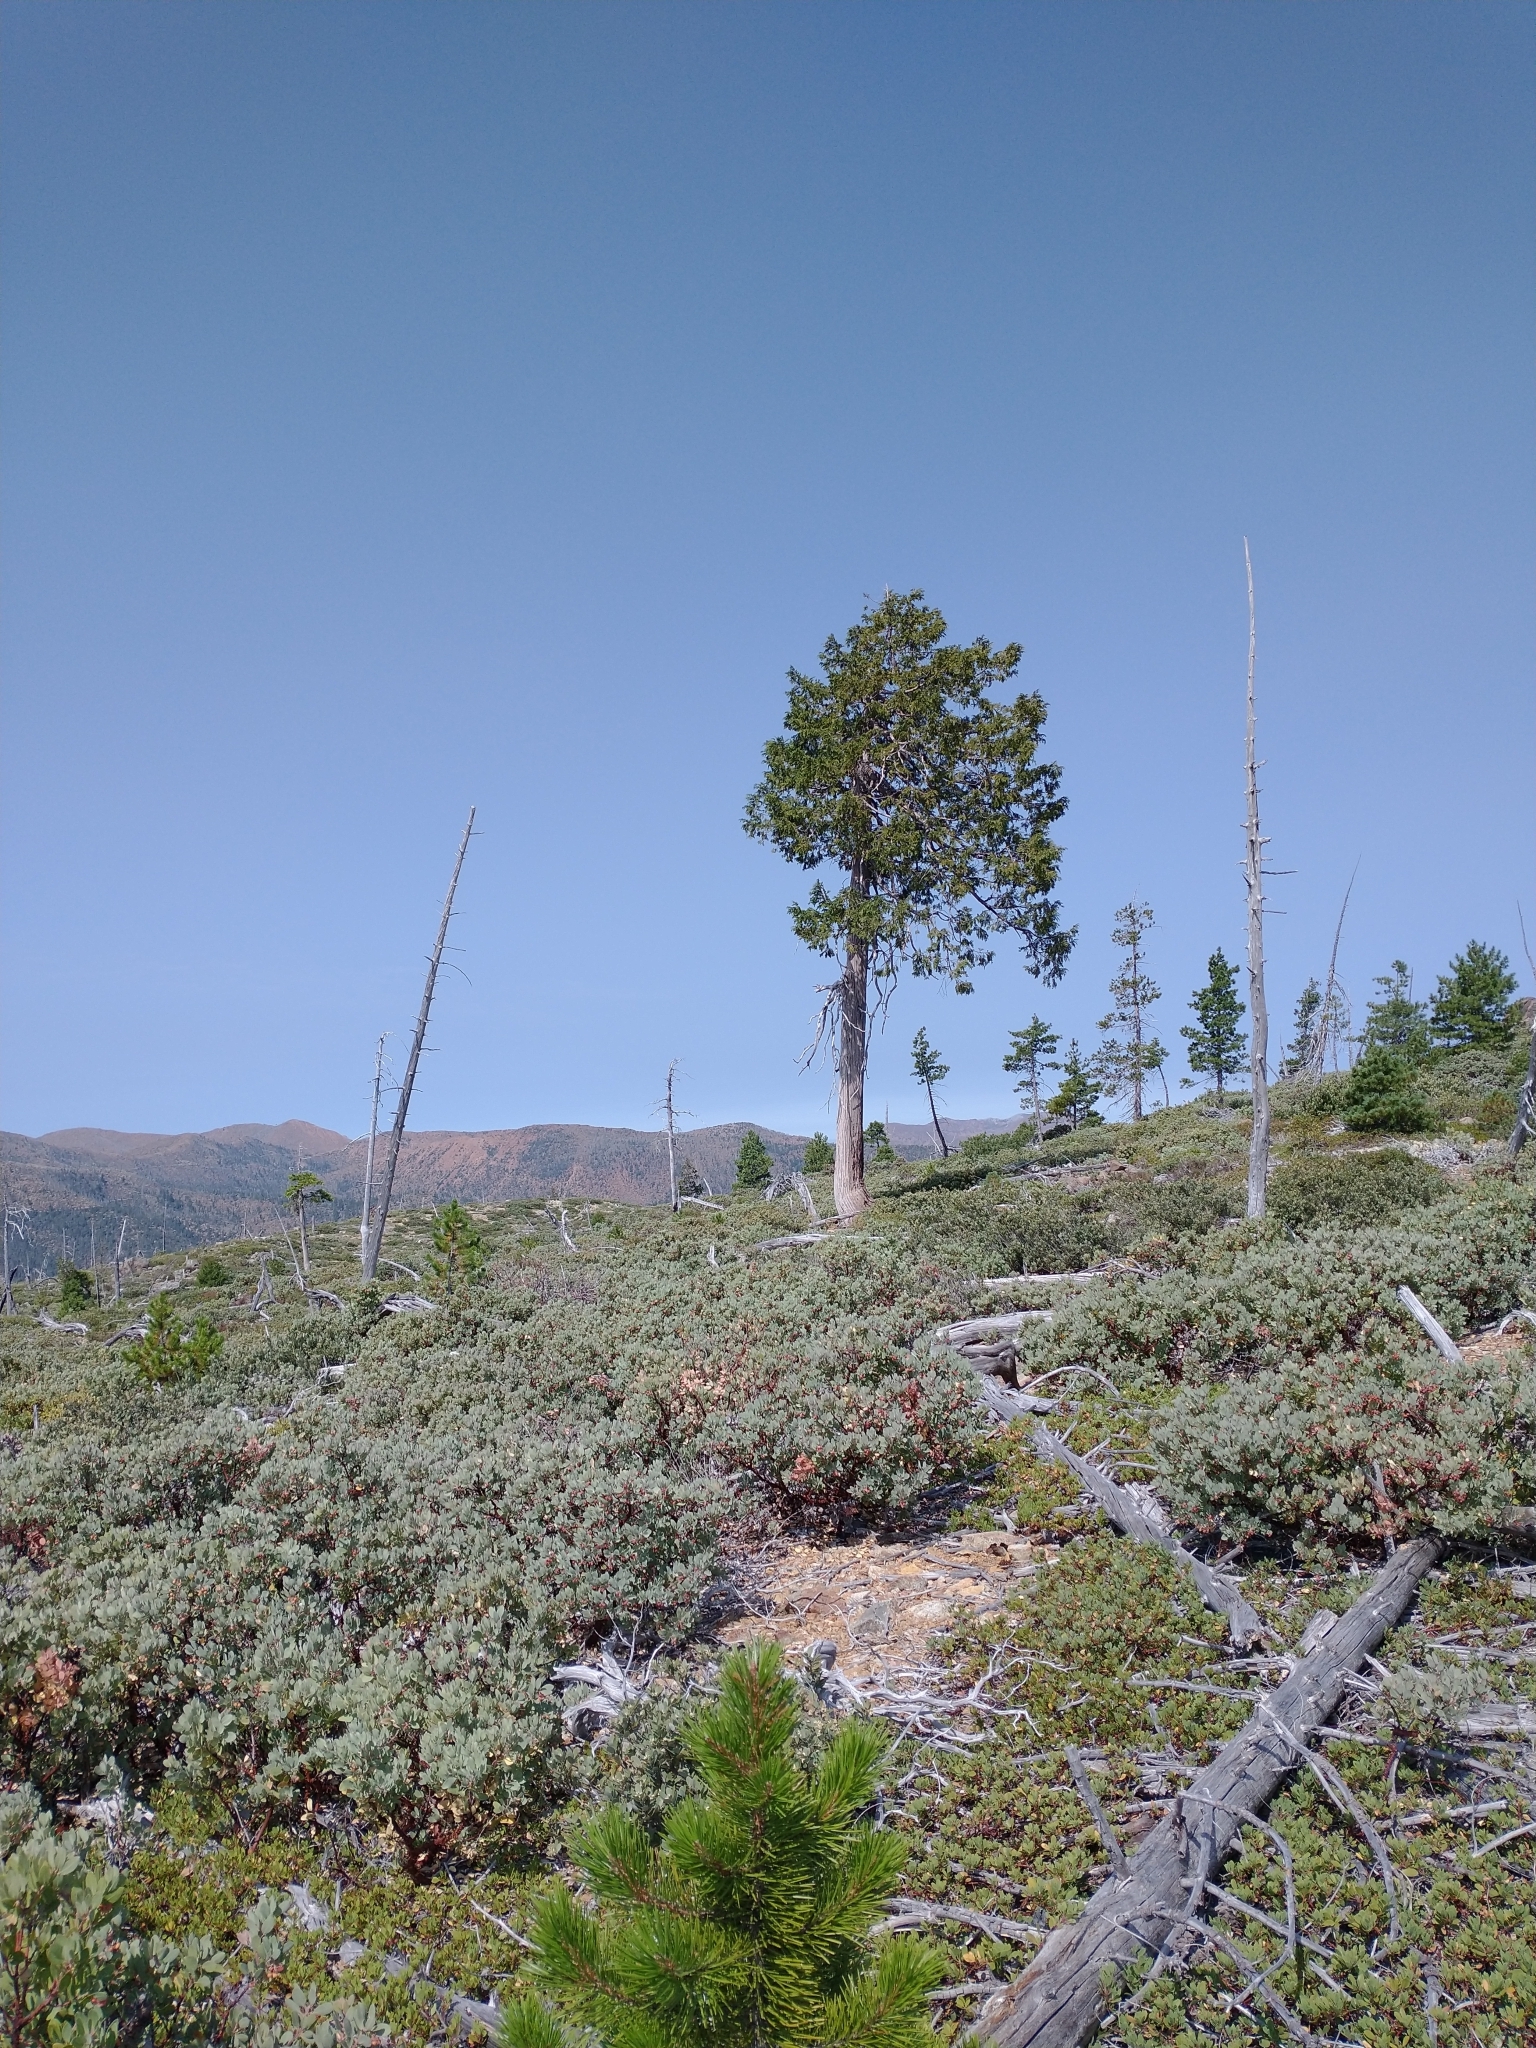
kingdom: Plantae
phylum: Tracheophyta
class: Pinopsida
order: Pinales
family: Cupressaceae
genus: Chamaecyparis
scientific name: Chamaecyparis lawsoniana
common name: Lawson's cypress
